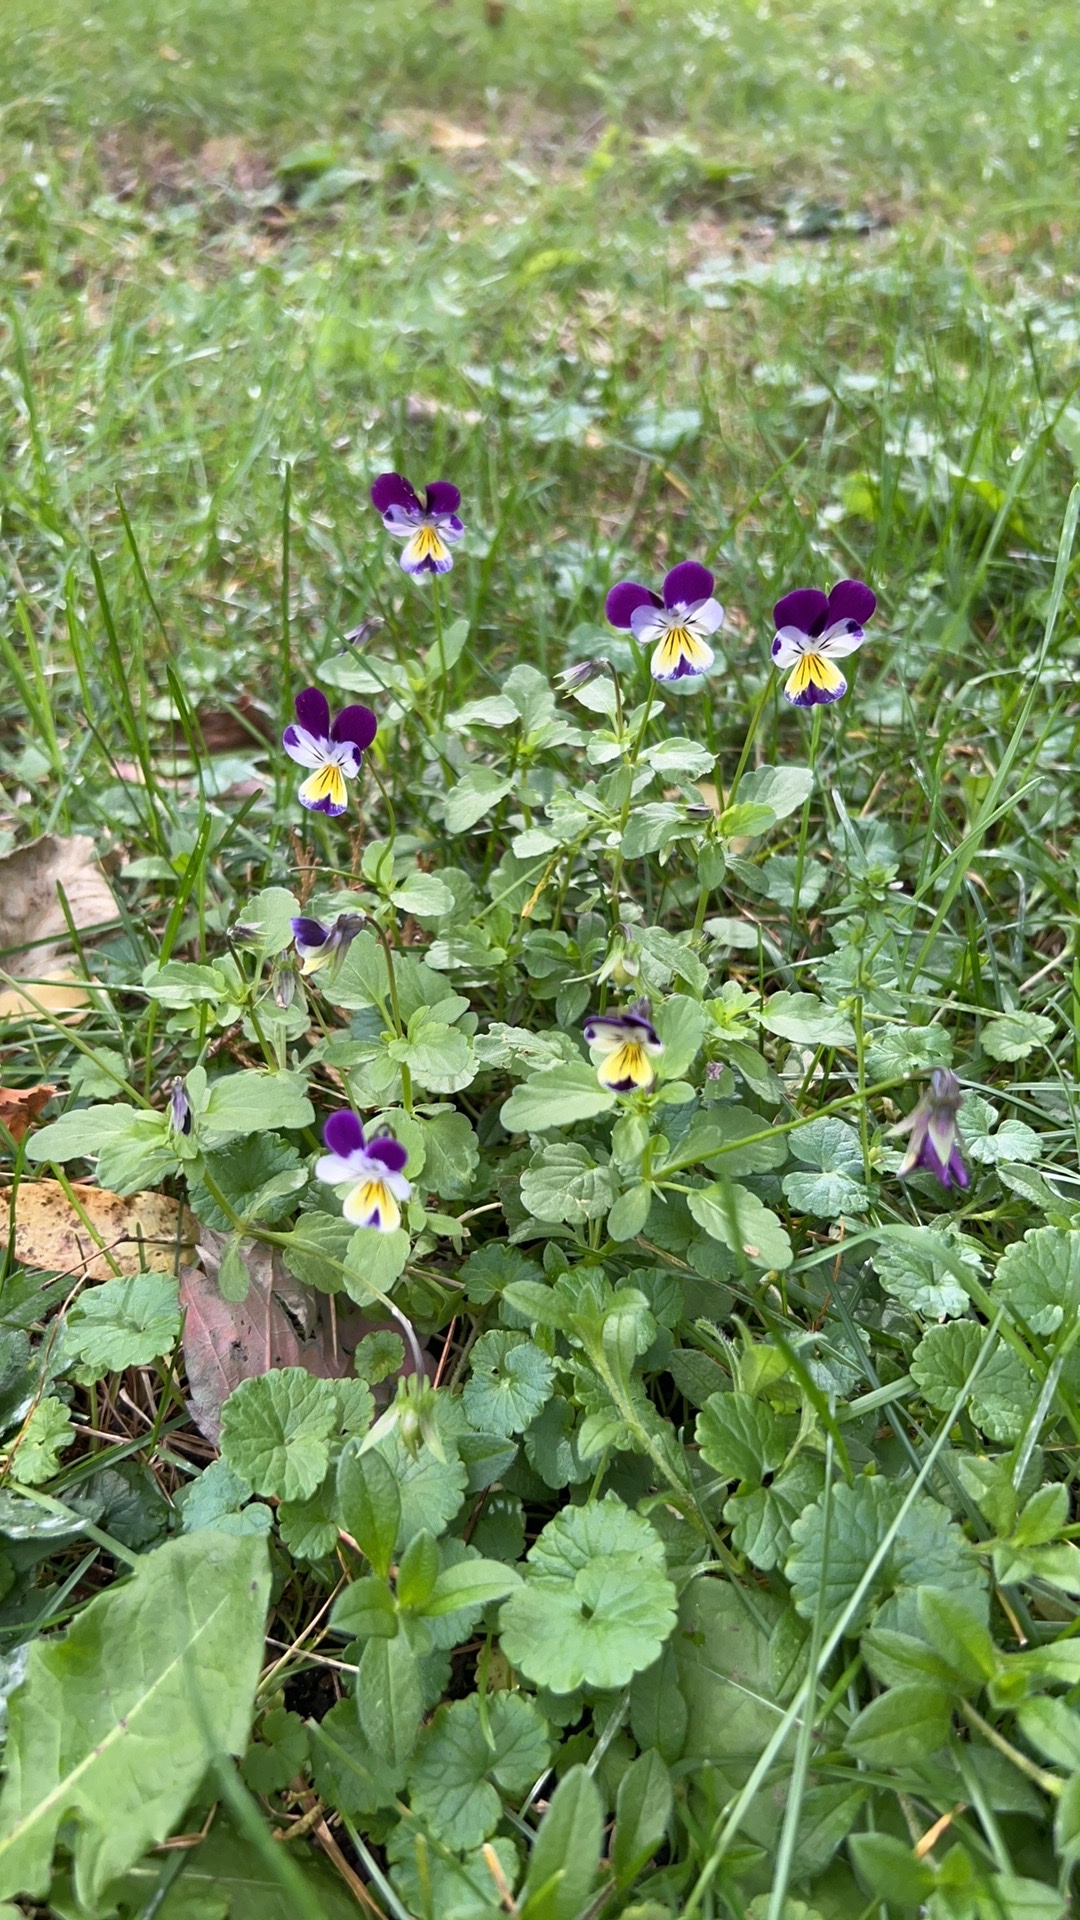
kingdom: Plantae
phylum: Tracheophyta
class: Magnoliopsida
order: Malpighiales
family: Violaceae
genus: Viola
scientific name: Viola williamsii
